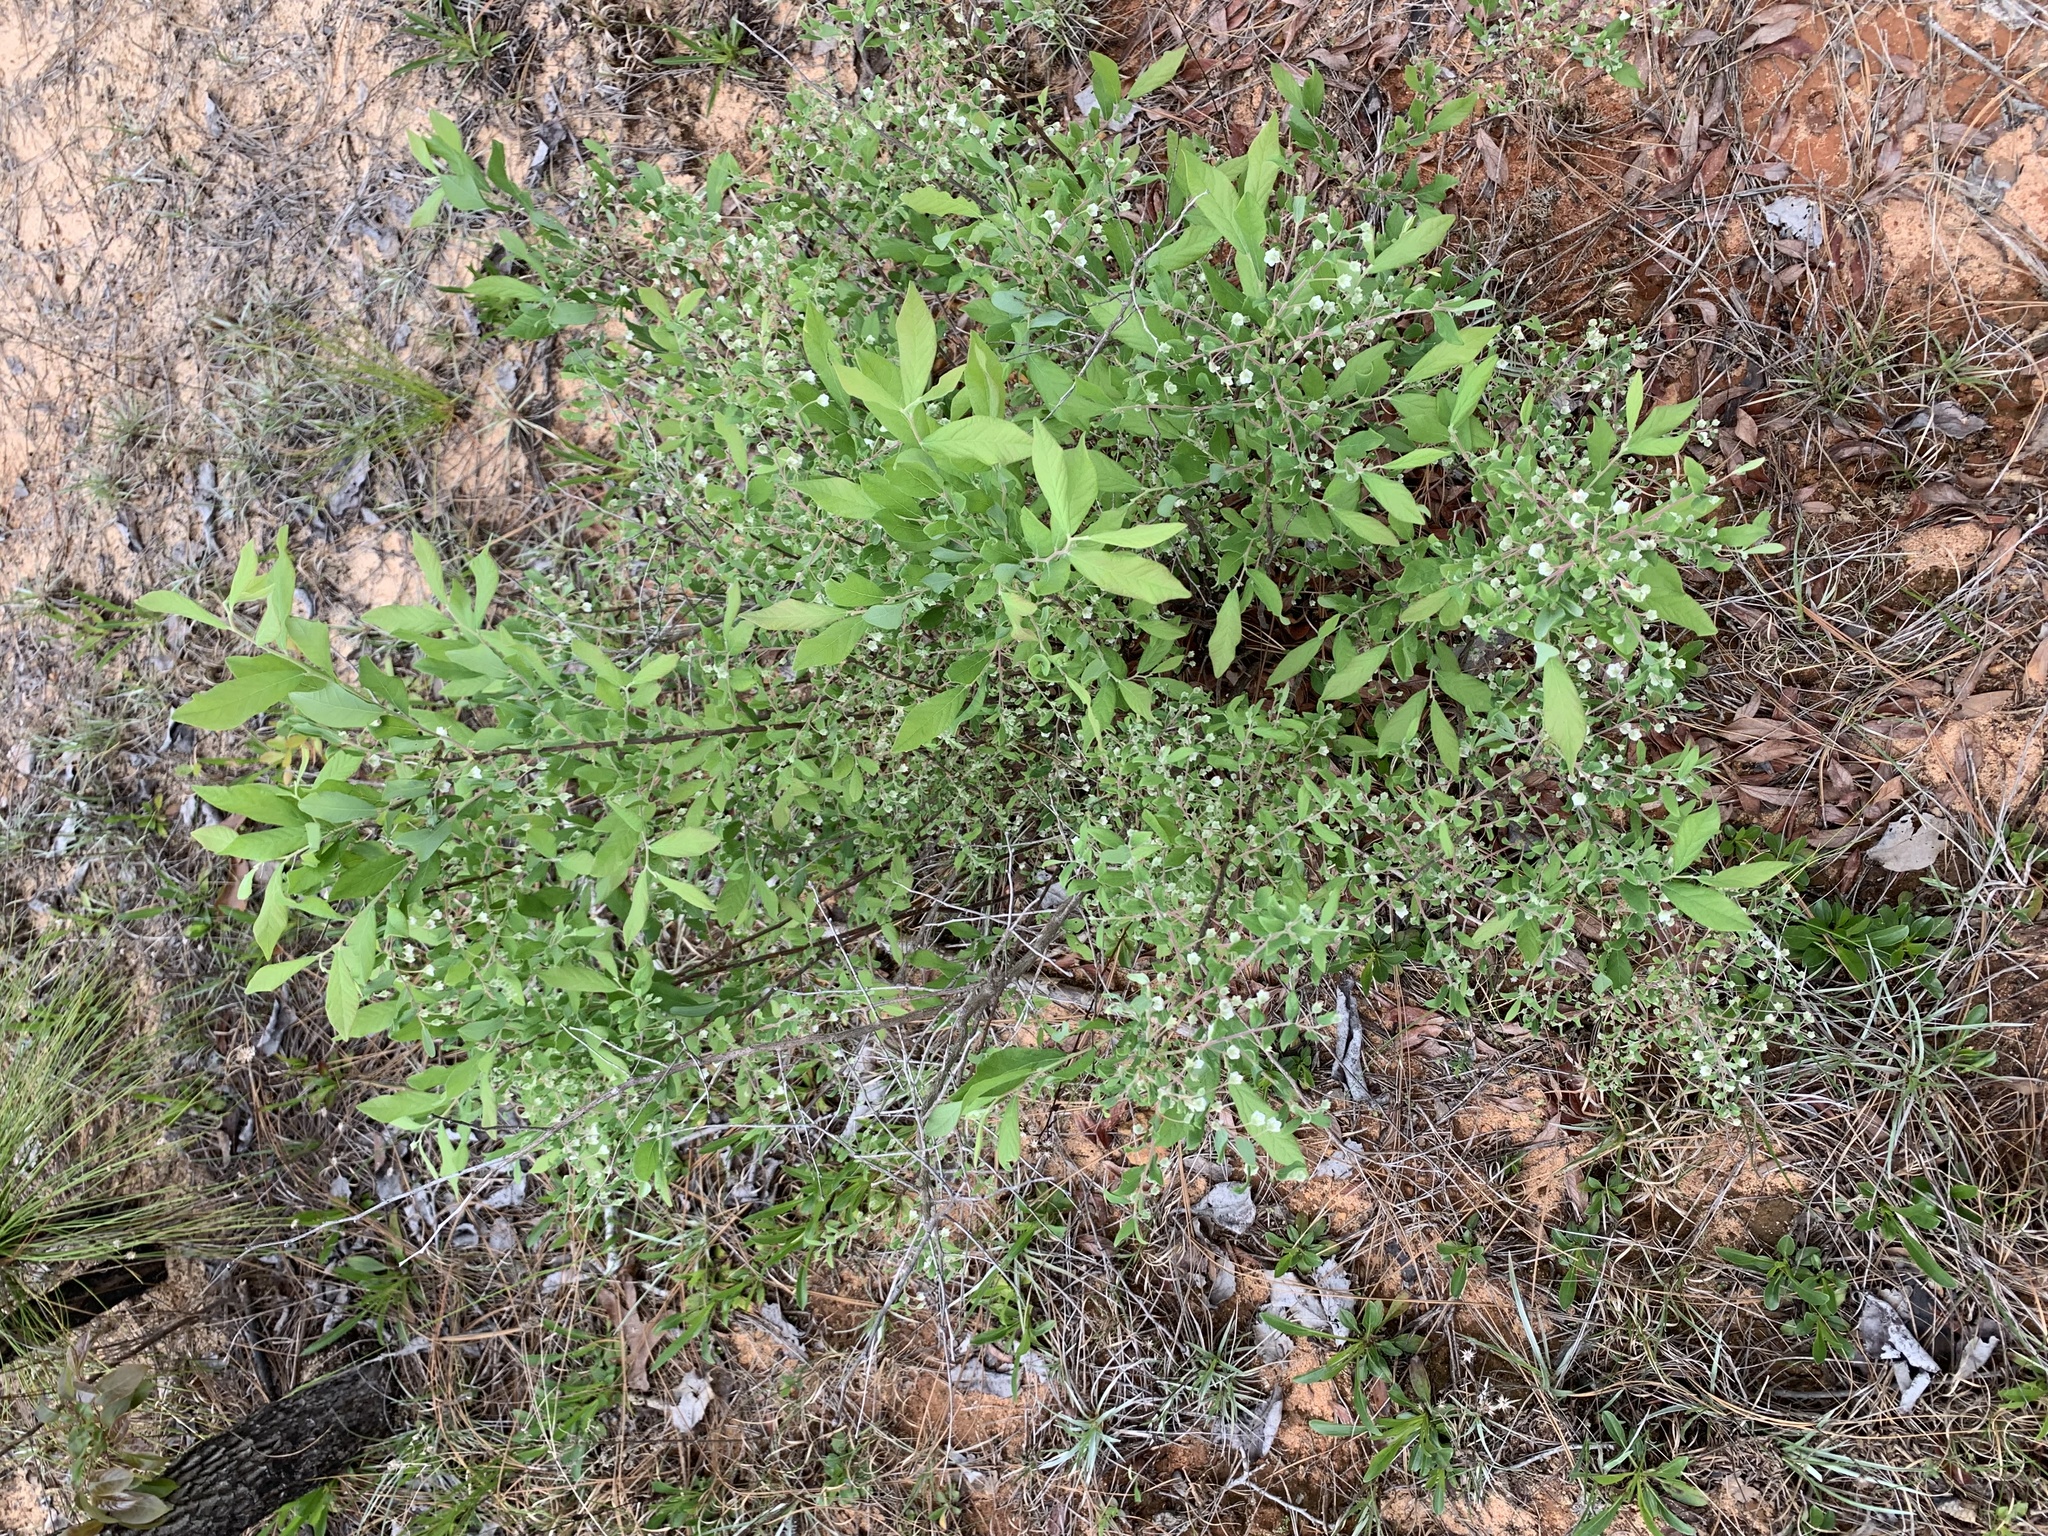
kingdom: Plantae
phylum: Tracheophyta
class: Magnoliopsida
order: Ericales
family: Ericaceae
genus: Vaccinium
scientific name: Vaccinium stamineum
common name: Deerberry
